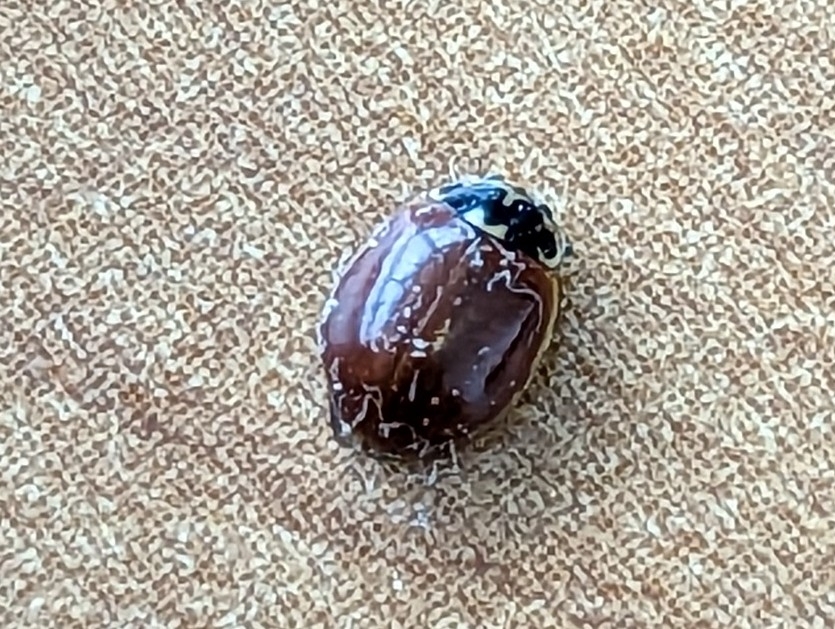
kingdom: Animalia
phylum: Arthropoda
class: Insecta
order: Coleoptera
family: Coccinellidae
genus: Adalia
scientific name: Adalia bipunctata
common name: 2-spot ladybird
